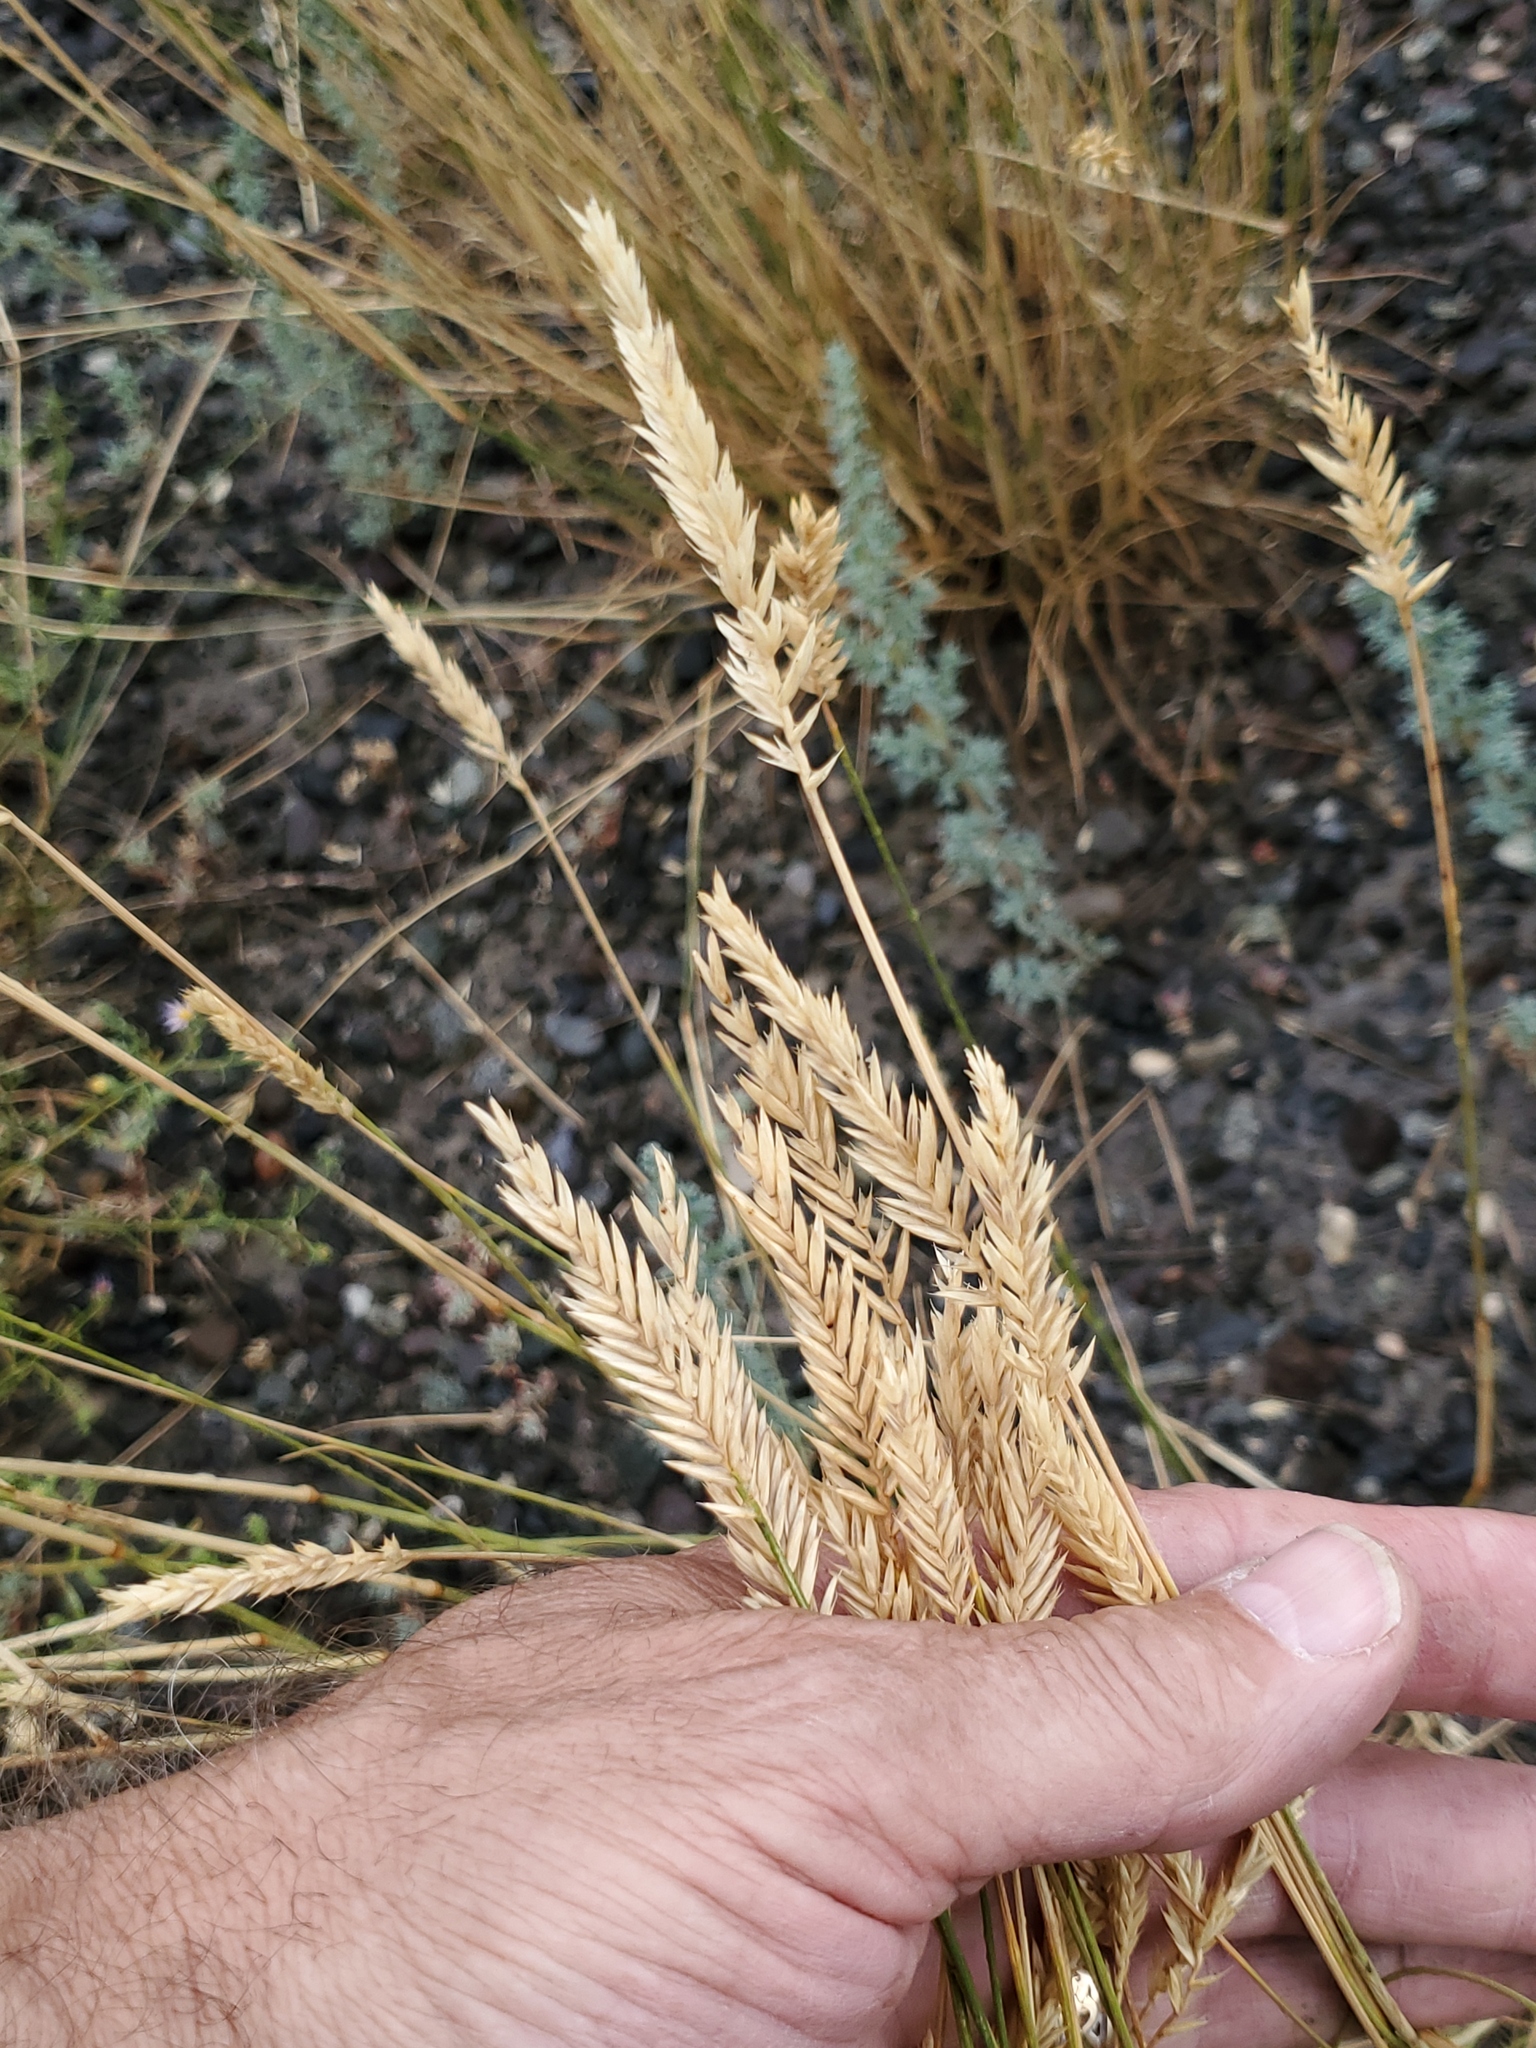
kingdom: Plantae
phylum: Tracheophyta
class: Liliopsida
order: Poales
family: Poaceae
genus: Agropyron
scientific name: Agropyron cristatum
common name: Crested wheatgrass
